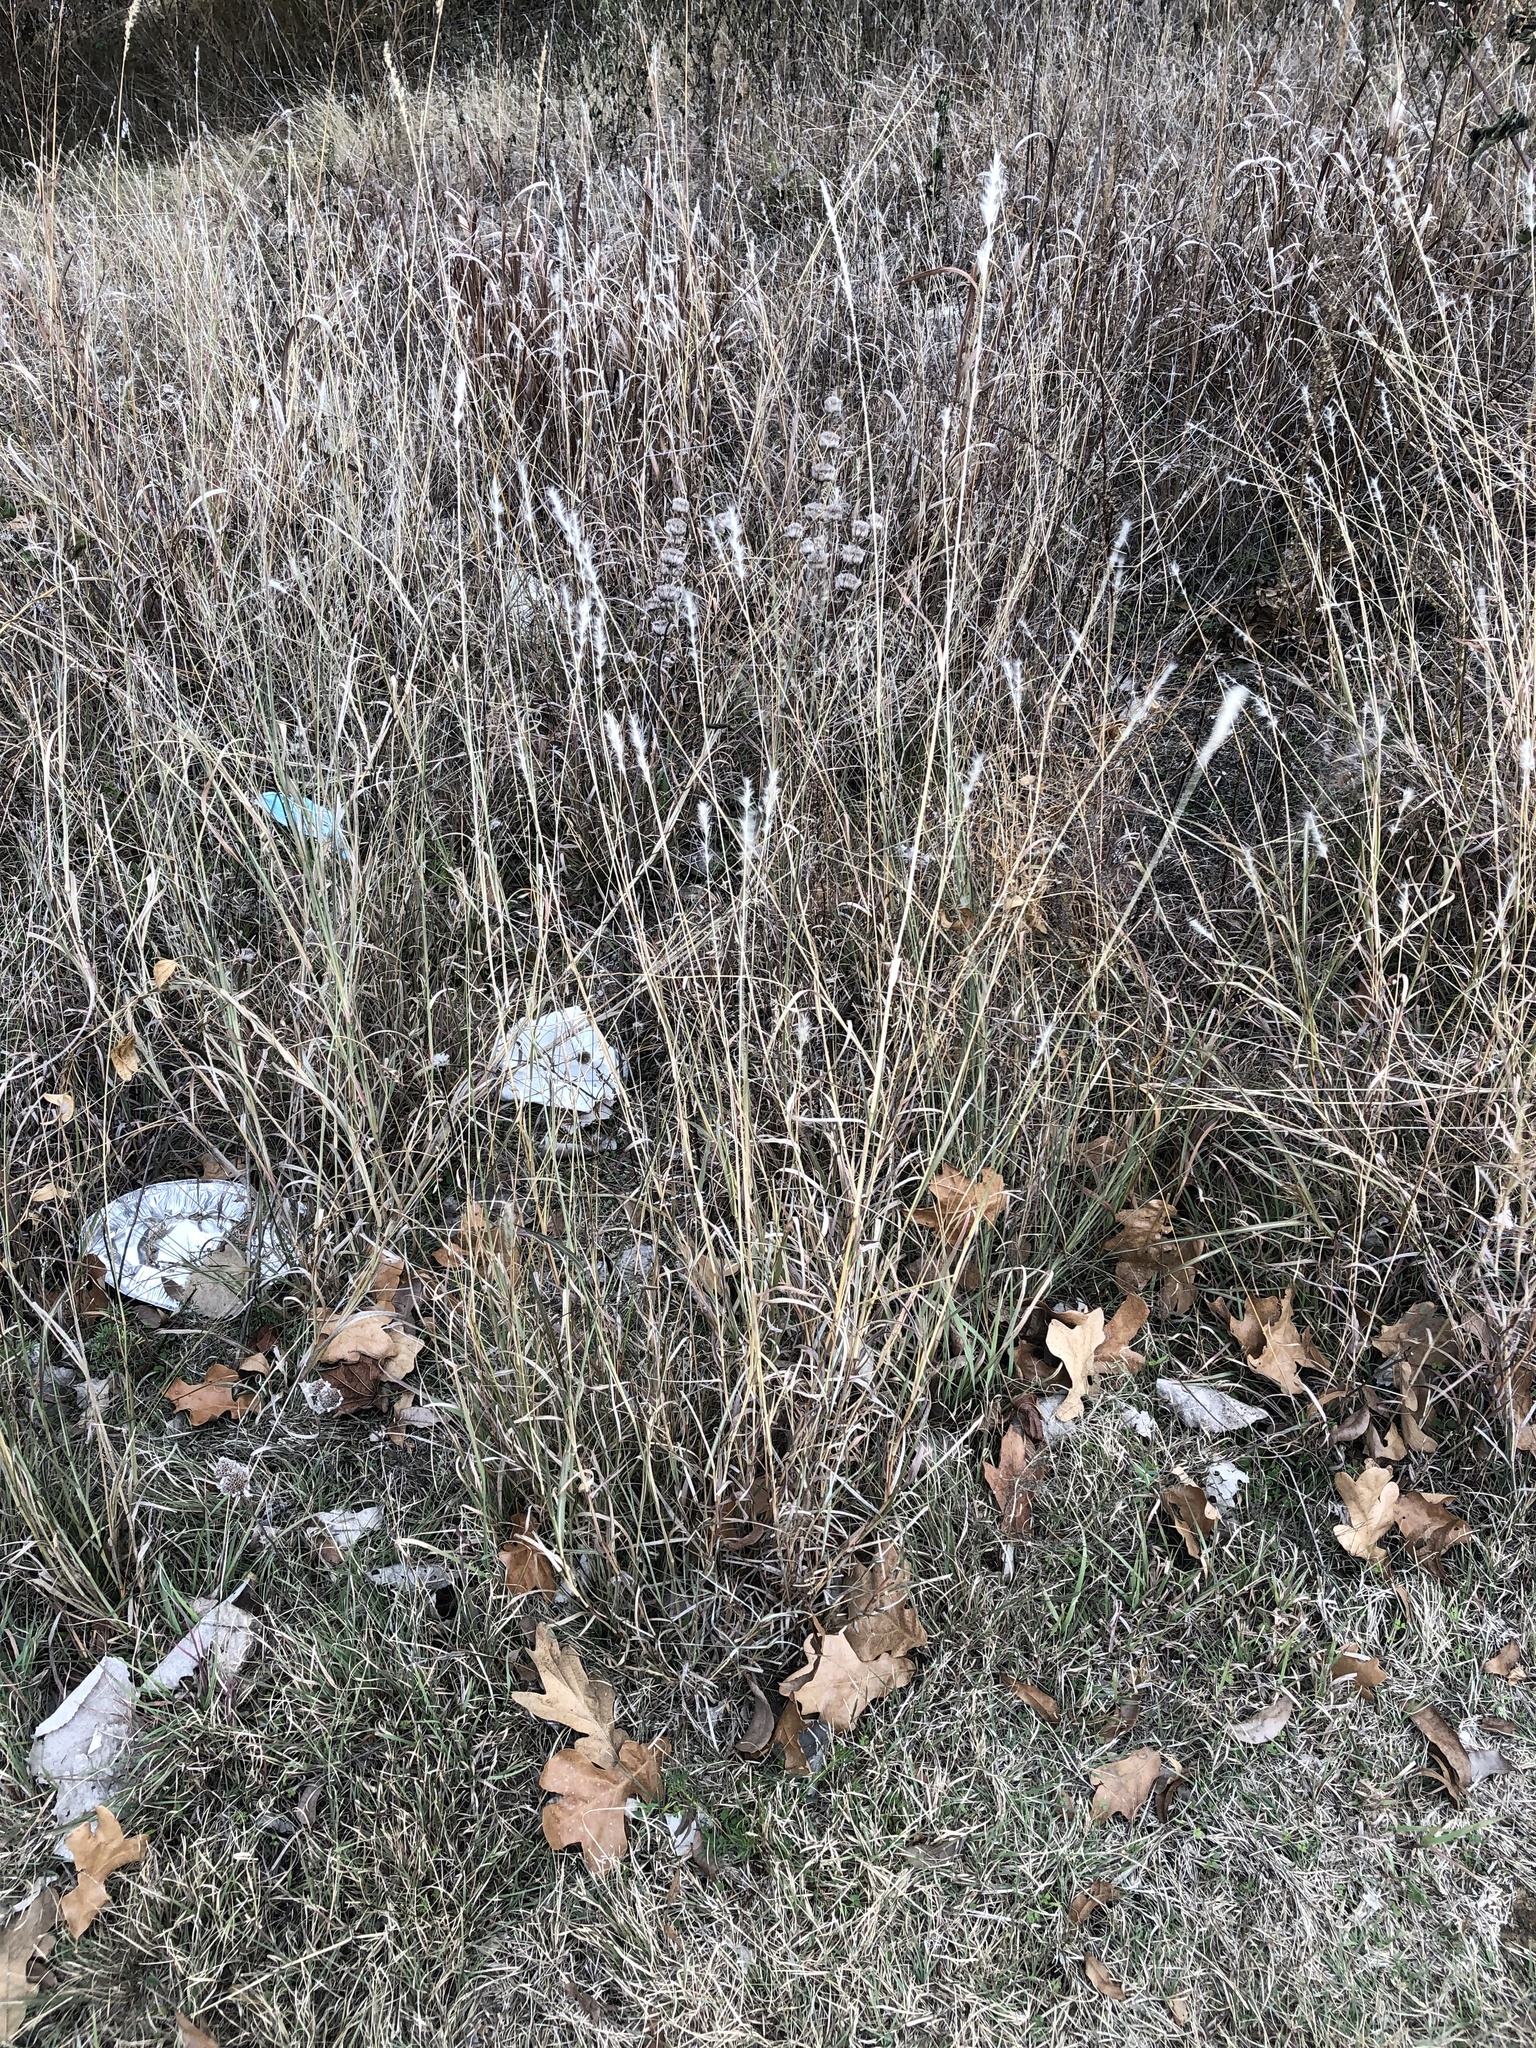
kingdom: Plantae
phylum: Tracheophyta
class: Liliopsida
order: Poales
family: Poaceae
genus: Bothriochloa
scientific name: Bothriochloa torreyana
